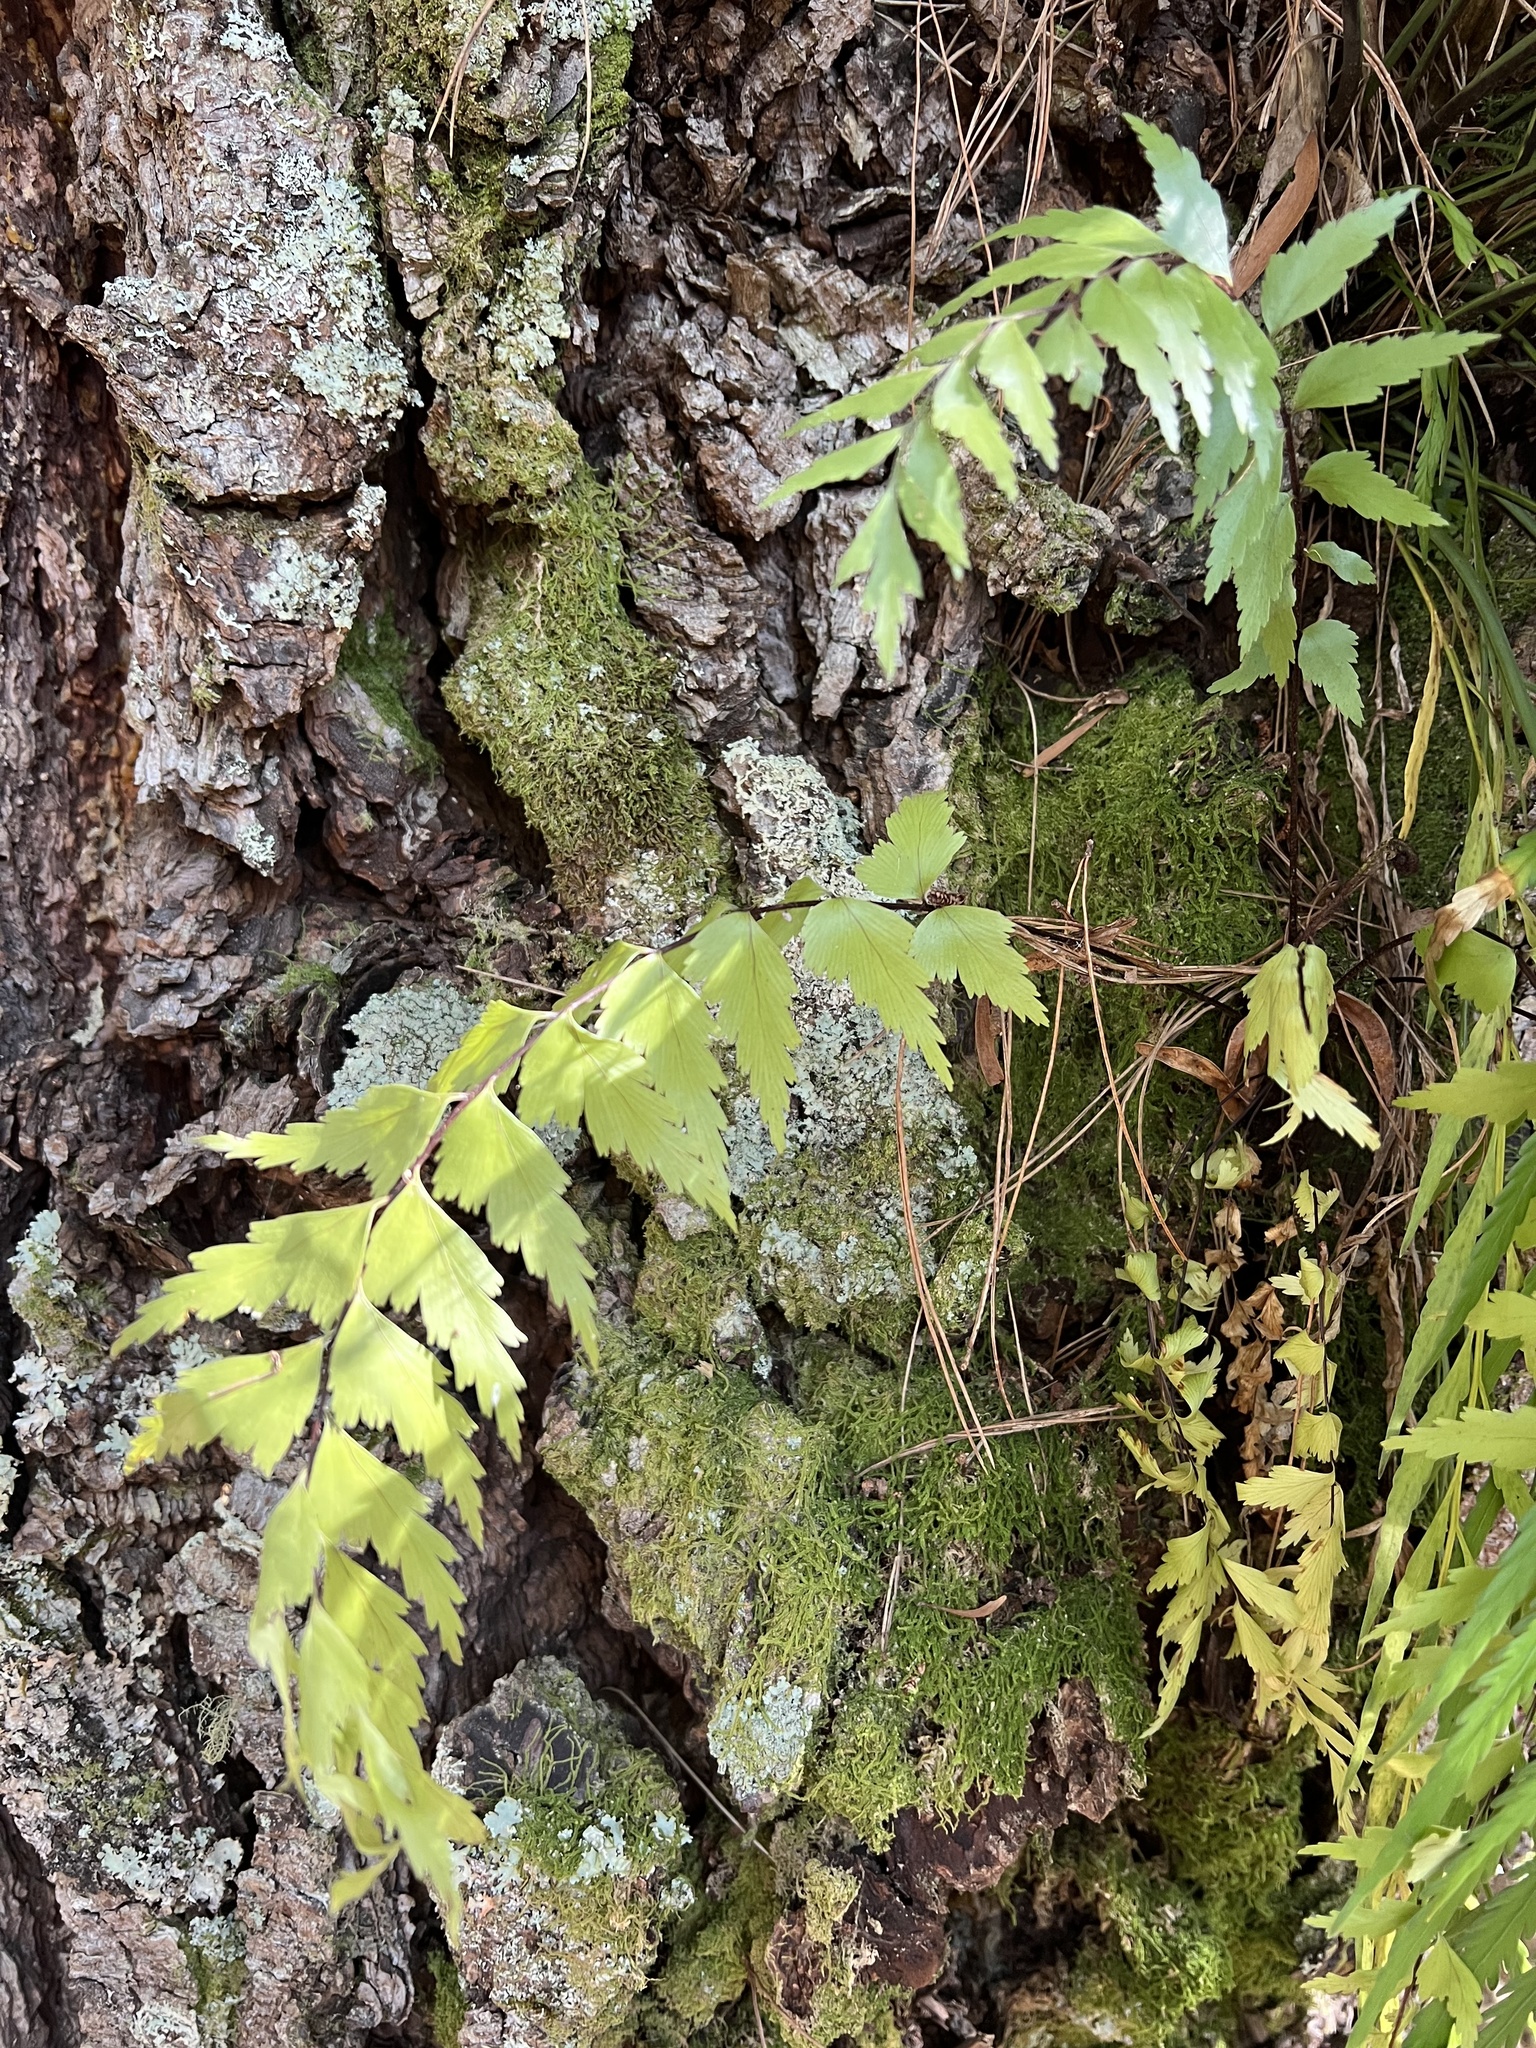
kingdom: Plantae
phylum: Tracheophyta
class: Polypodiopsida
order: Polypodiales
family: Aspleniaceae
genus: Asplenium
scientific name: Asplenium polyodon
